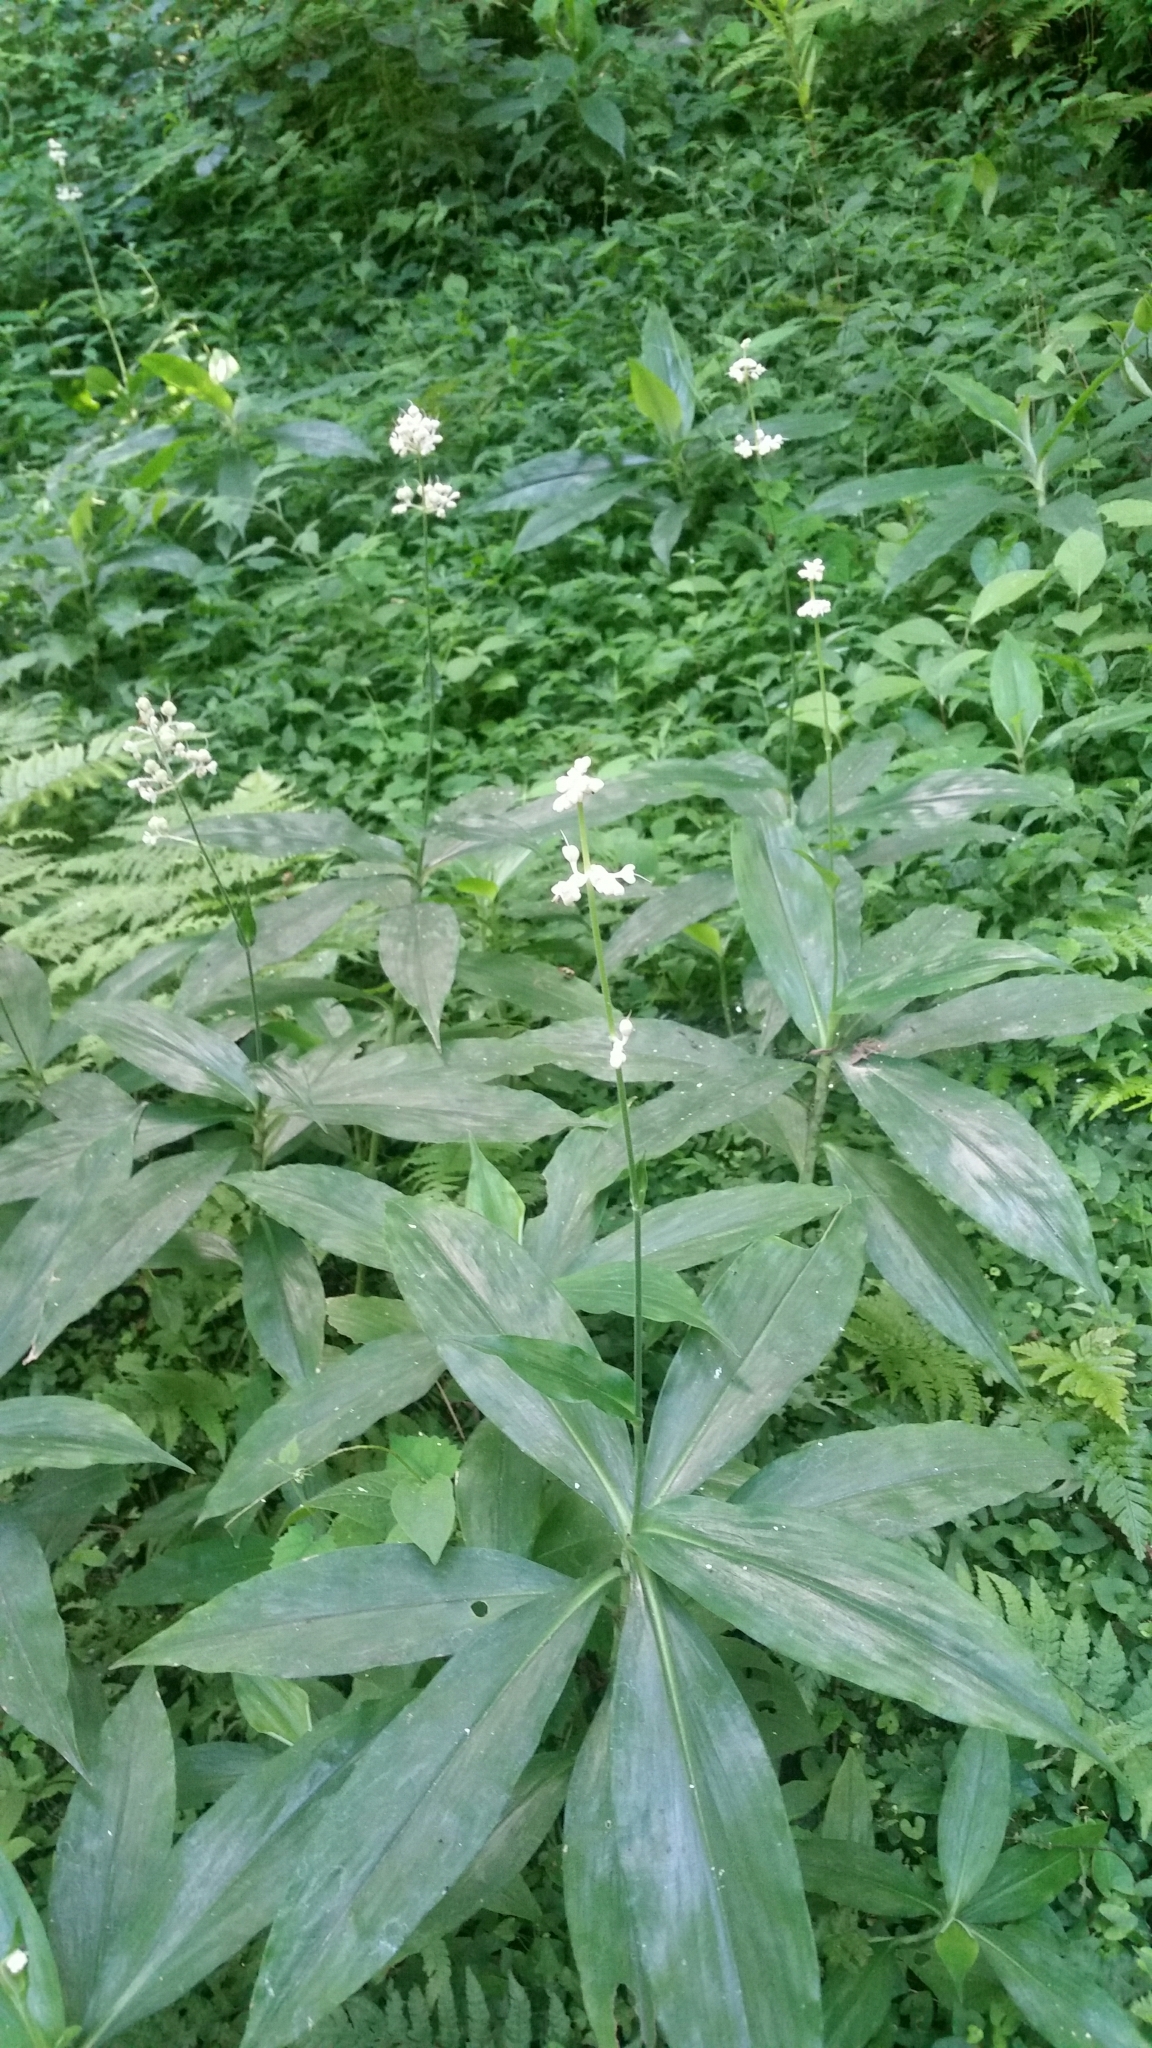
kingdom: Plantae
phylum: Tracheophyta
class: Liliopsida
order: Commelinales
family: Commelinaceae
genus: Pollia
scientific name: Pollia japonica
